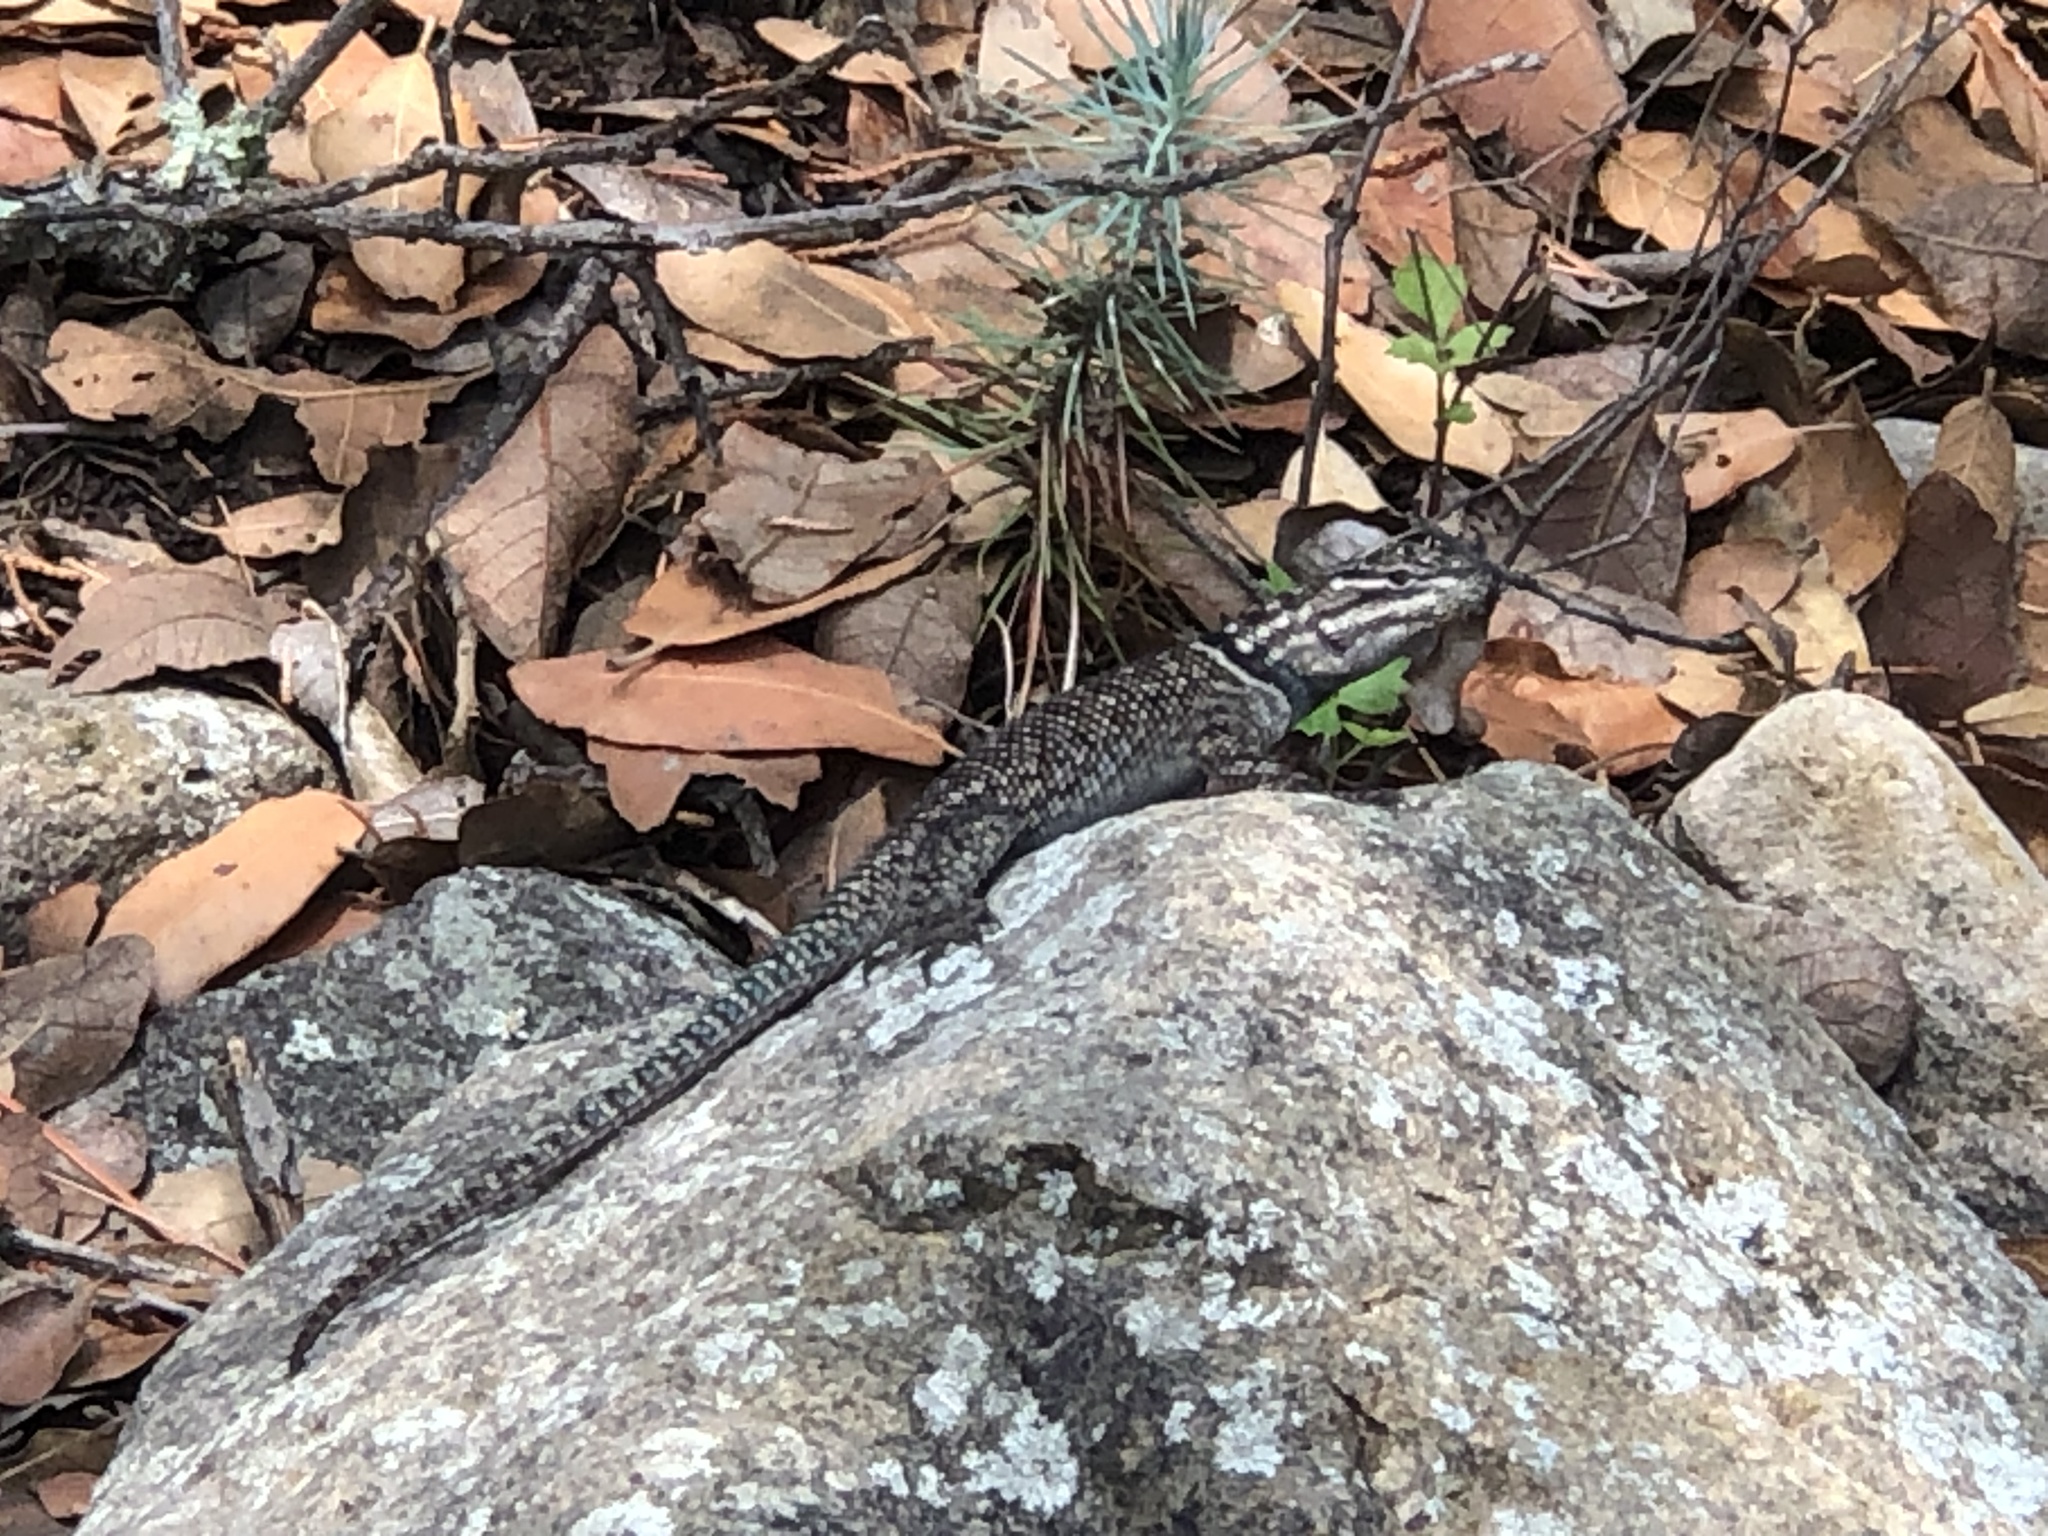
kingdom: Animalia
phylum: Chordata
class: Squamata
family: Phrynosomatidae
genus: Sceloporus
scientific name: Sceloporus jarrovii
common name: Yarrow's spiny lizard
